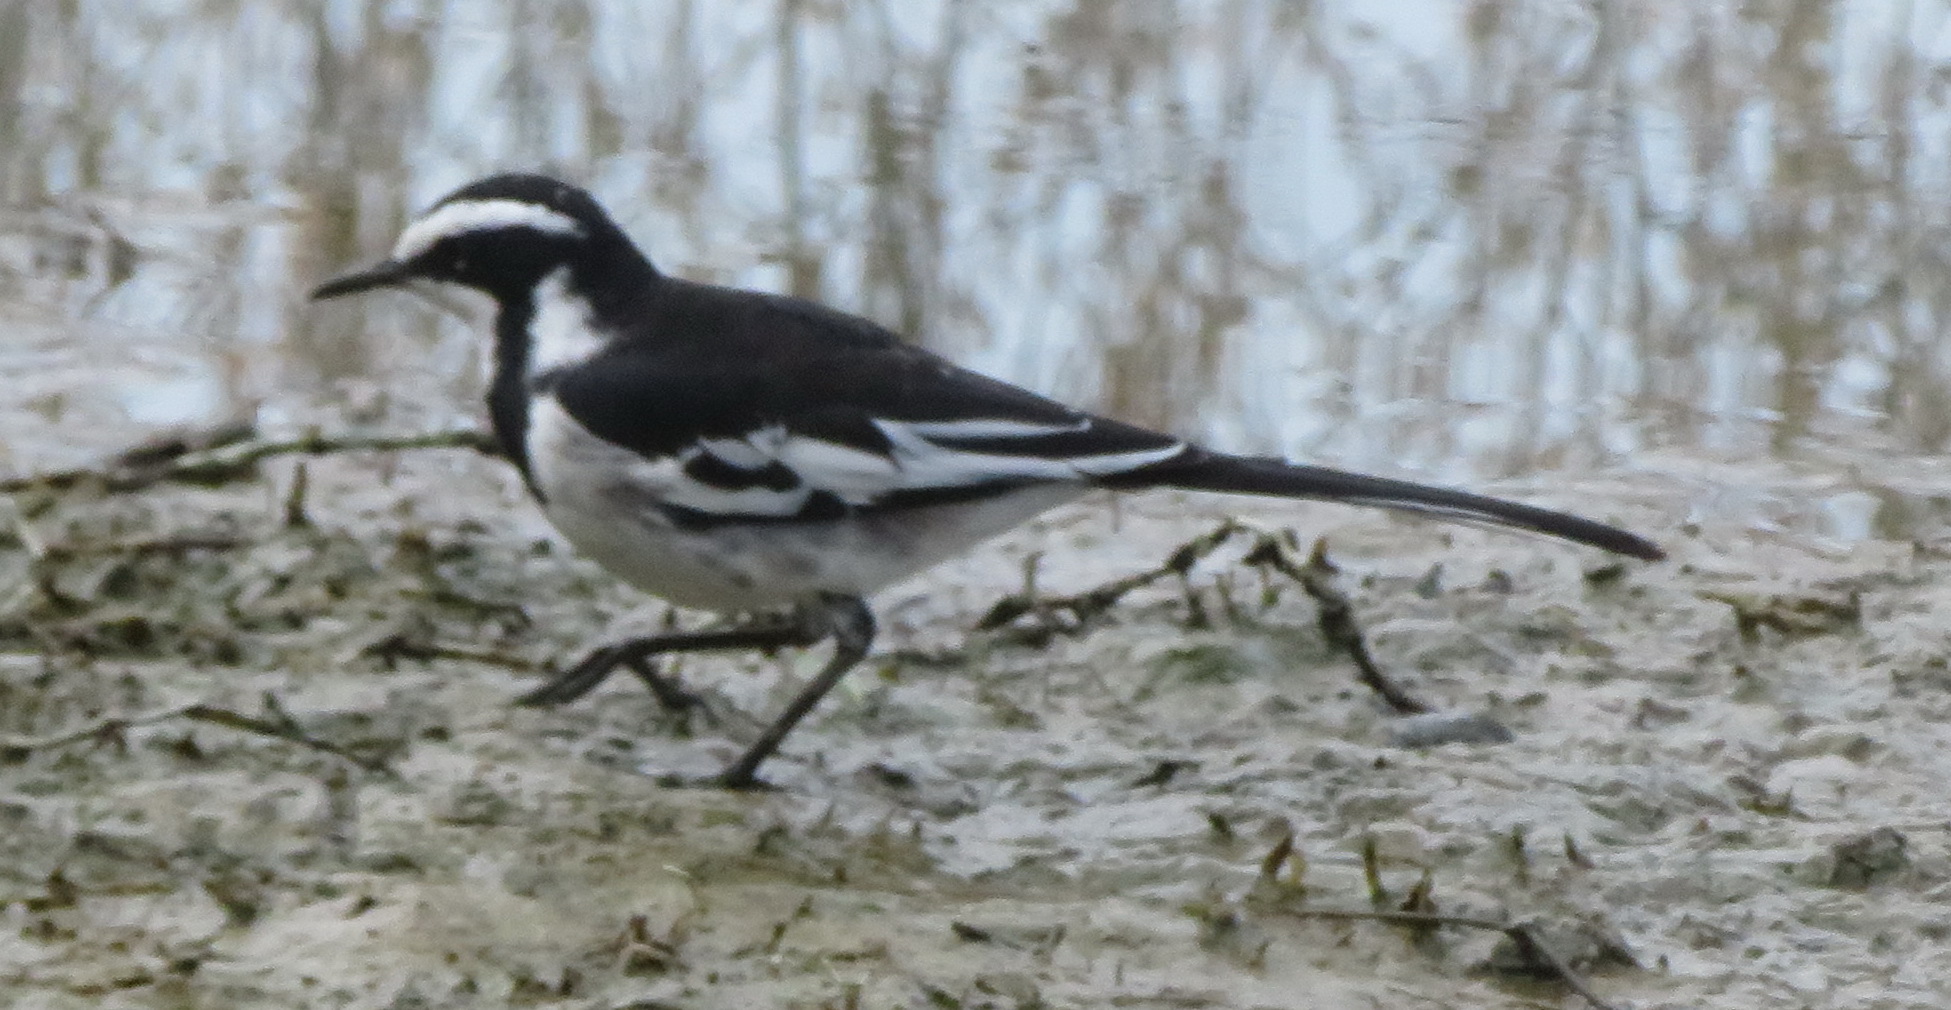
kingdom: Animalia
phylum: Chordata
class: Aves
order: Passeriformes
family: Motacillidae
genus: Motacilla
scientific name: Motacilla aguimp
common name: African pied wagtail
